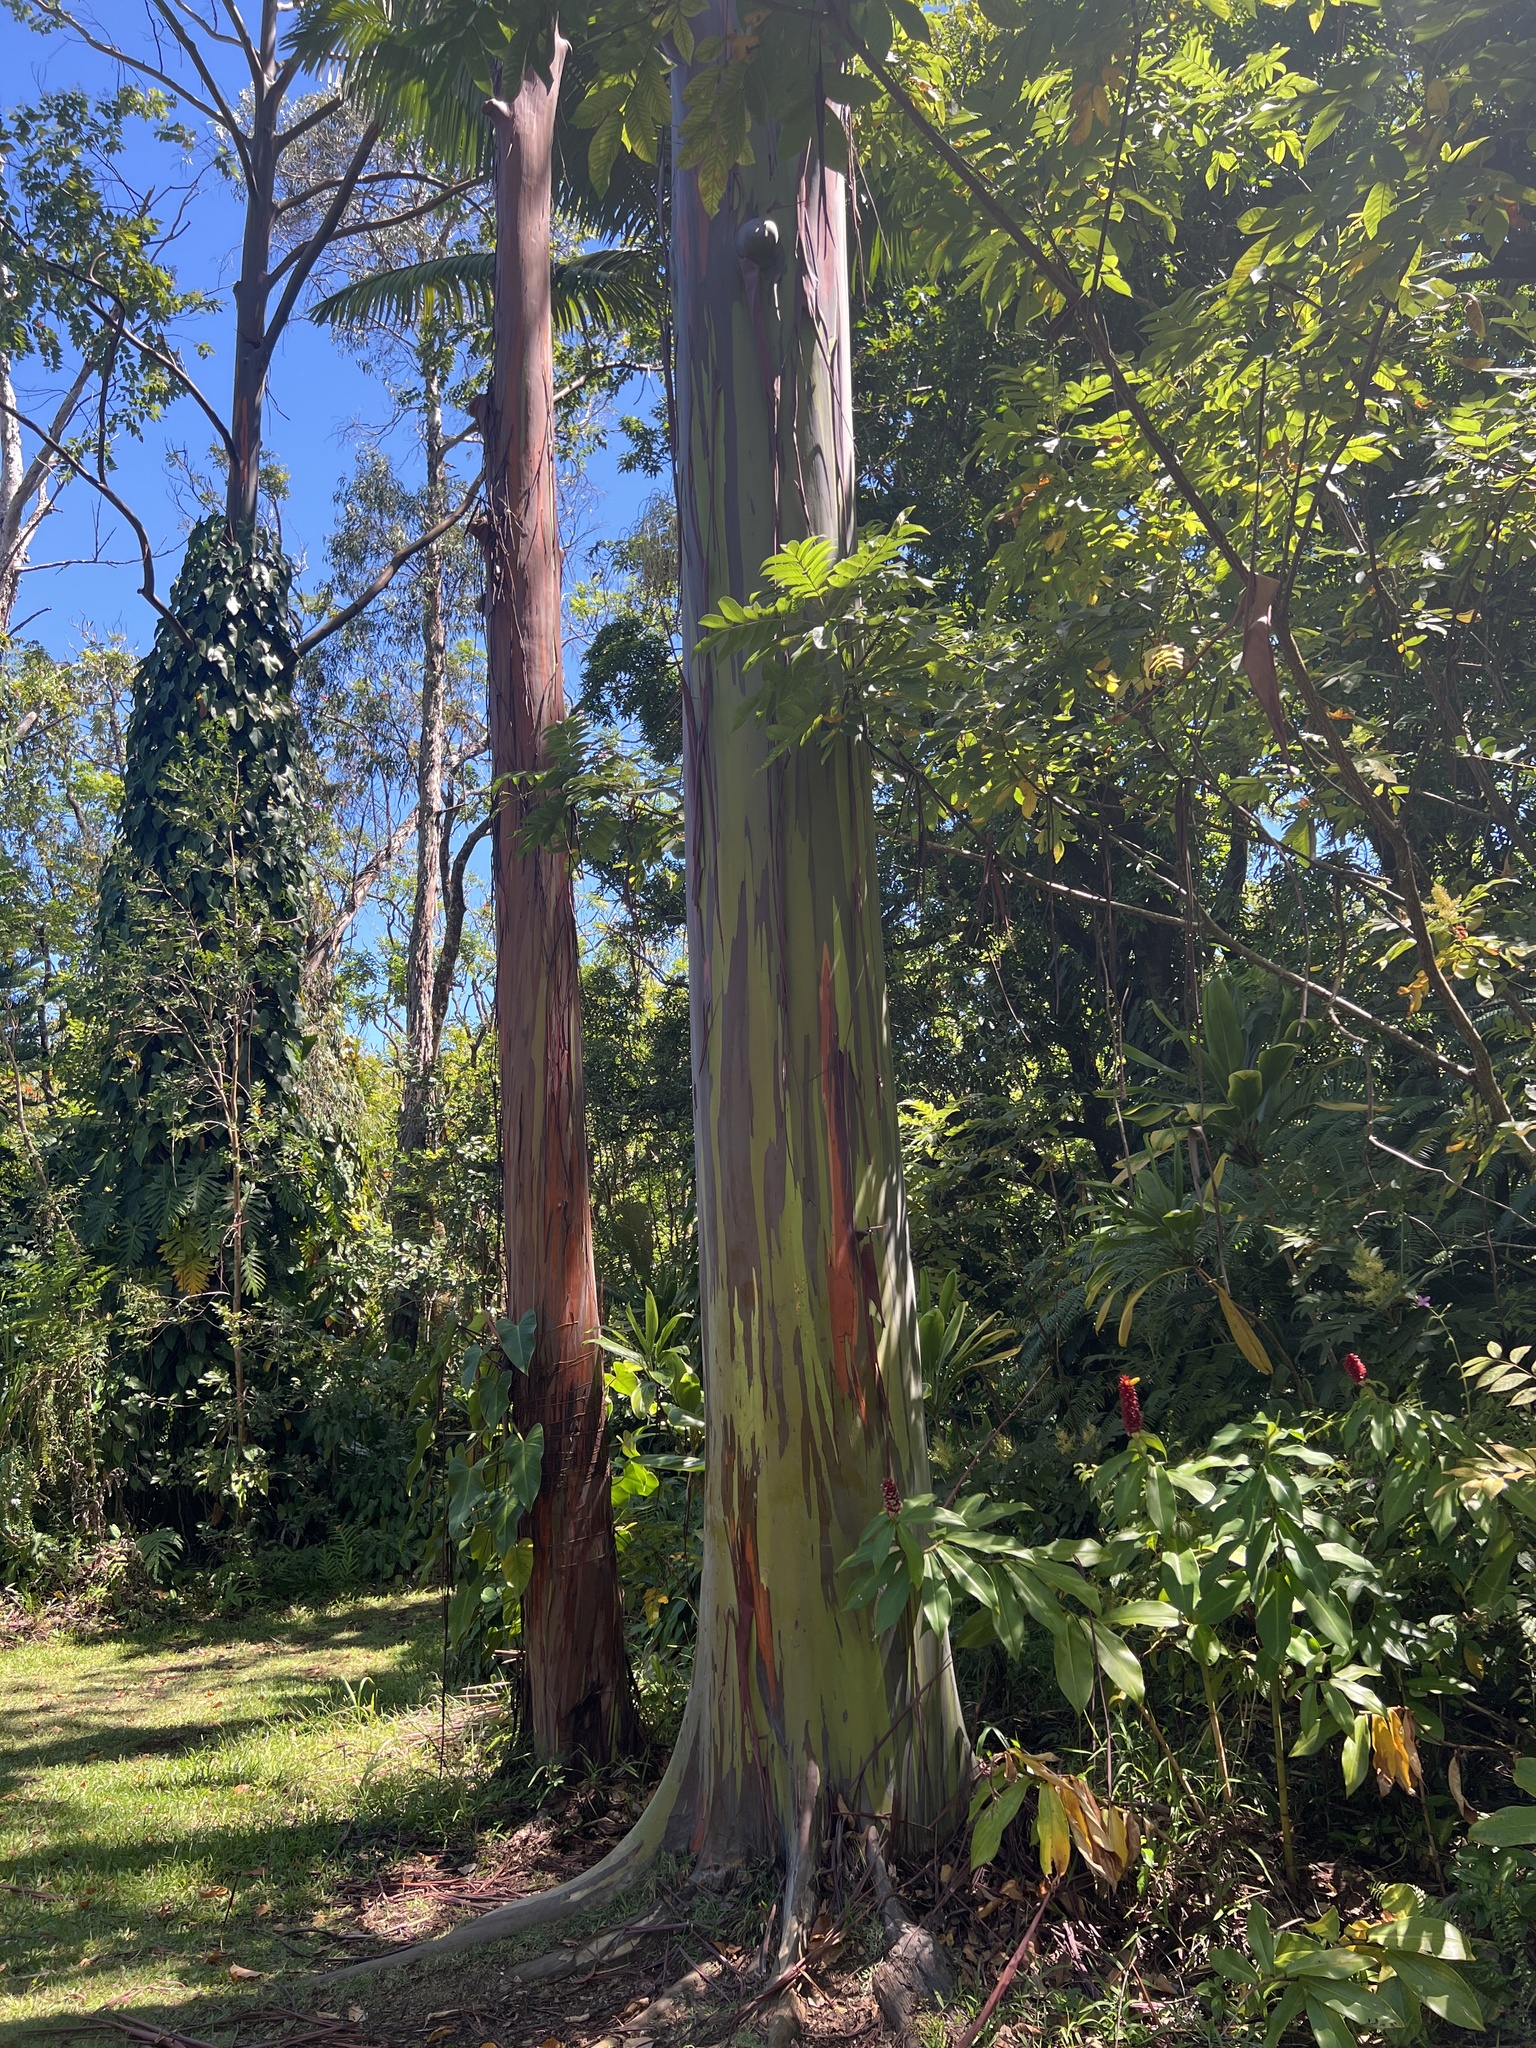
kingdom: Plantae
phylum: Tracheophyta
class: Magnoliopsida
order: Myrtales
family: Myrtaceae
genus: Eucalyptus
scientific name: Eucalyptus deglupta
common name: Mindanao gum
